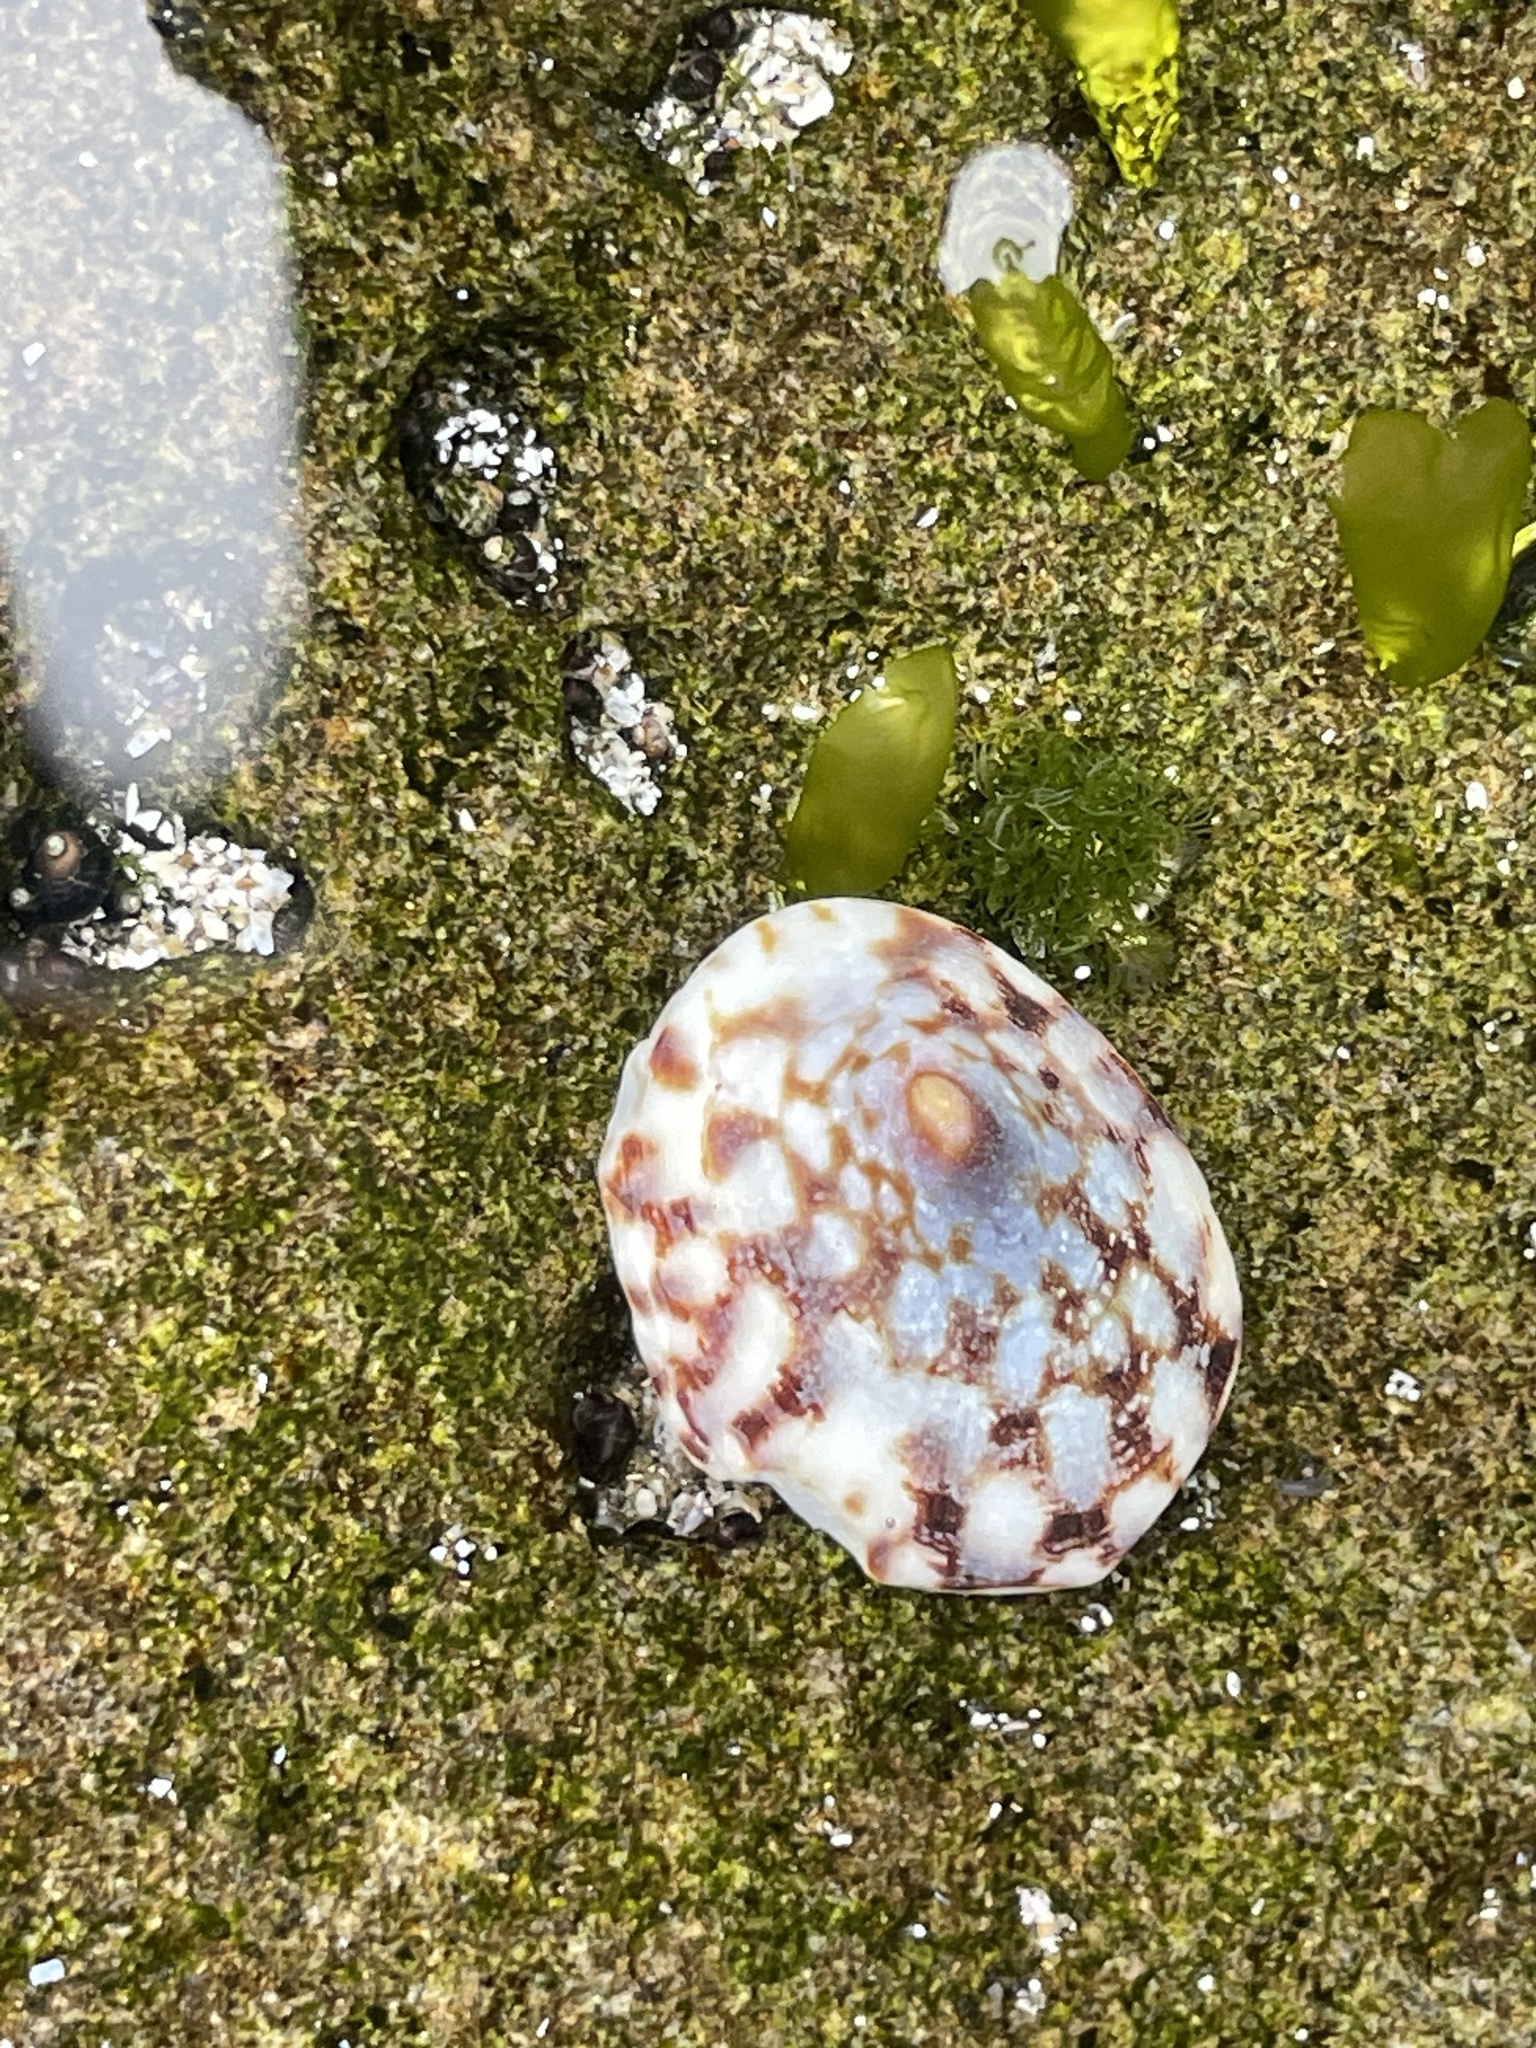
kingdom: Animalia
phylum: Mollusca
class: Gastropoda
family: Lottiidae
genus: Testudinalia
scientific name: Testudinalia testudinalis
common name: Common tortoiseshell limpet
